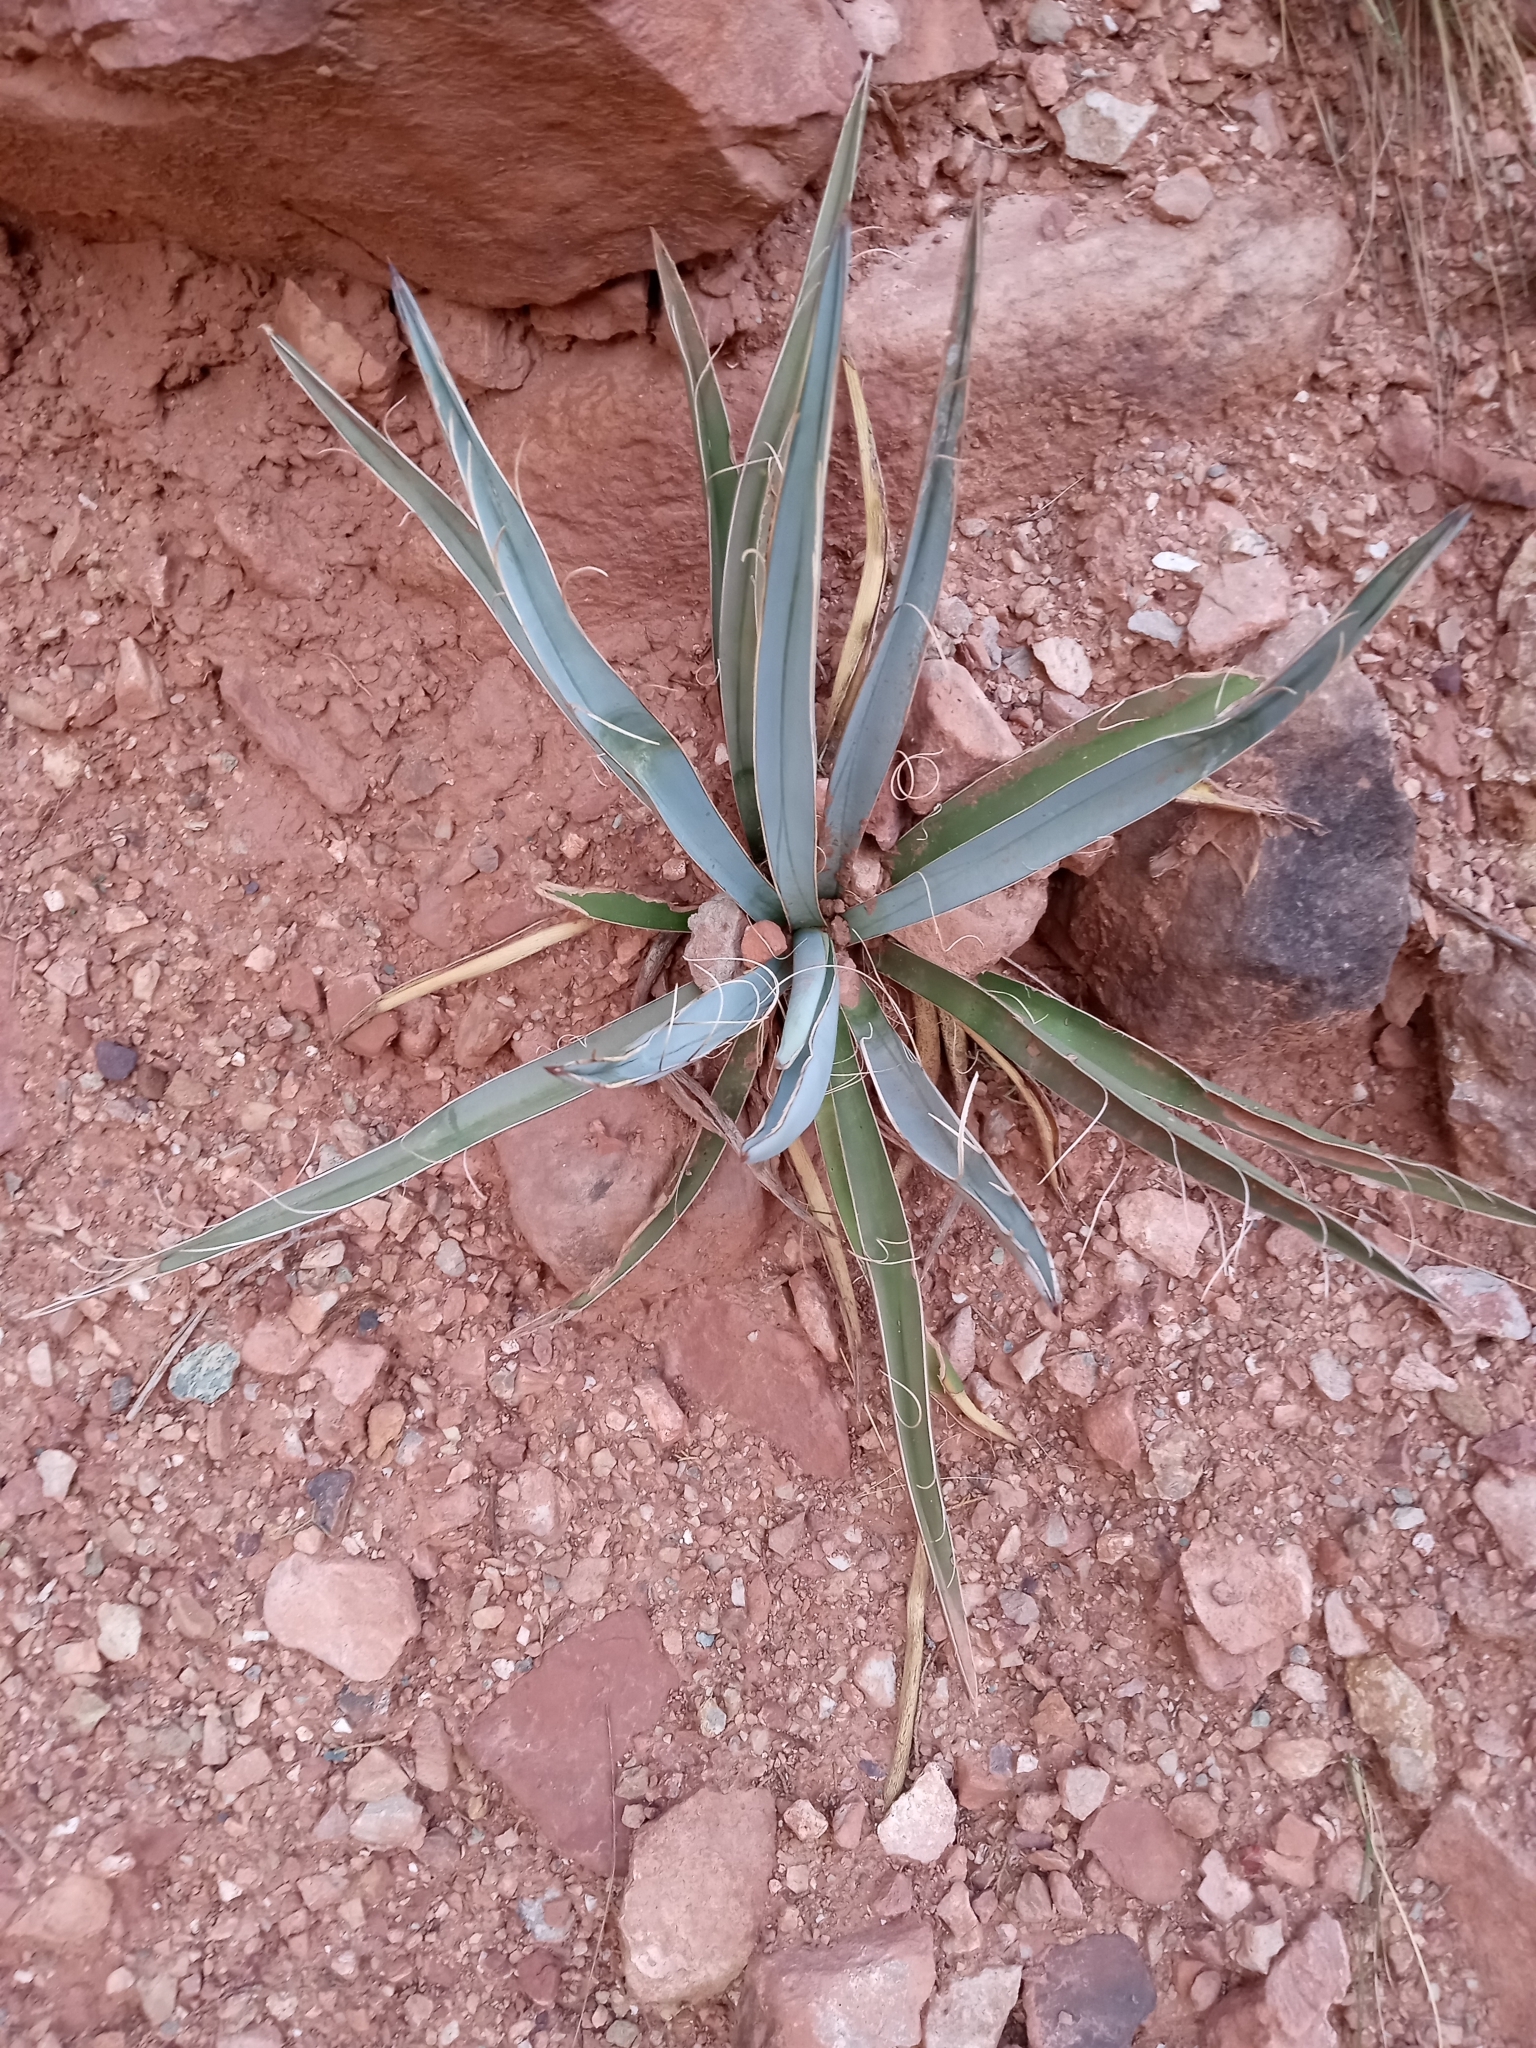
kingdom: Plantae
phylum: Tracheophyta
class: Liliopsida
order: Asparagales
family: Asparagaceae
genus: Yucca
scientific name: Yucca baccata
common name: Banana yucca
